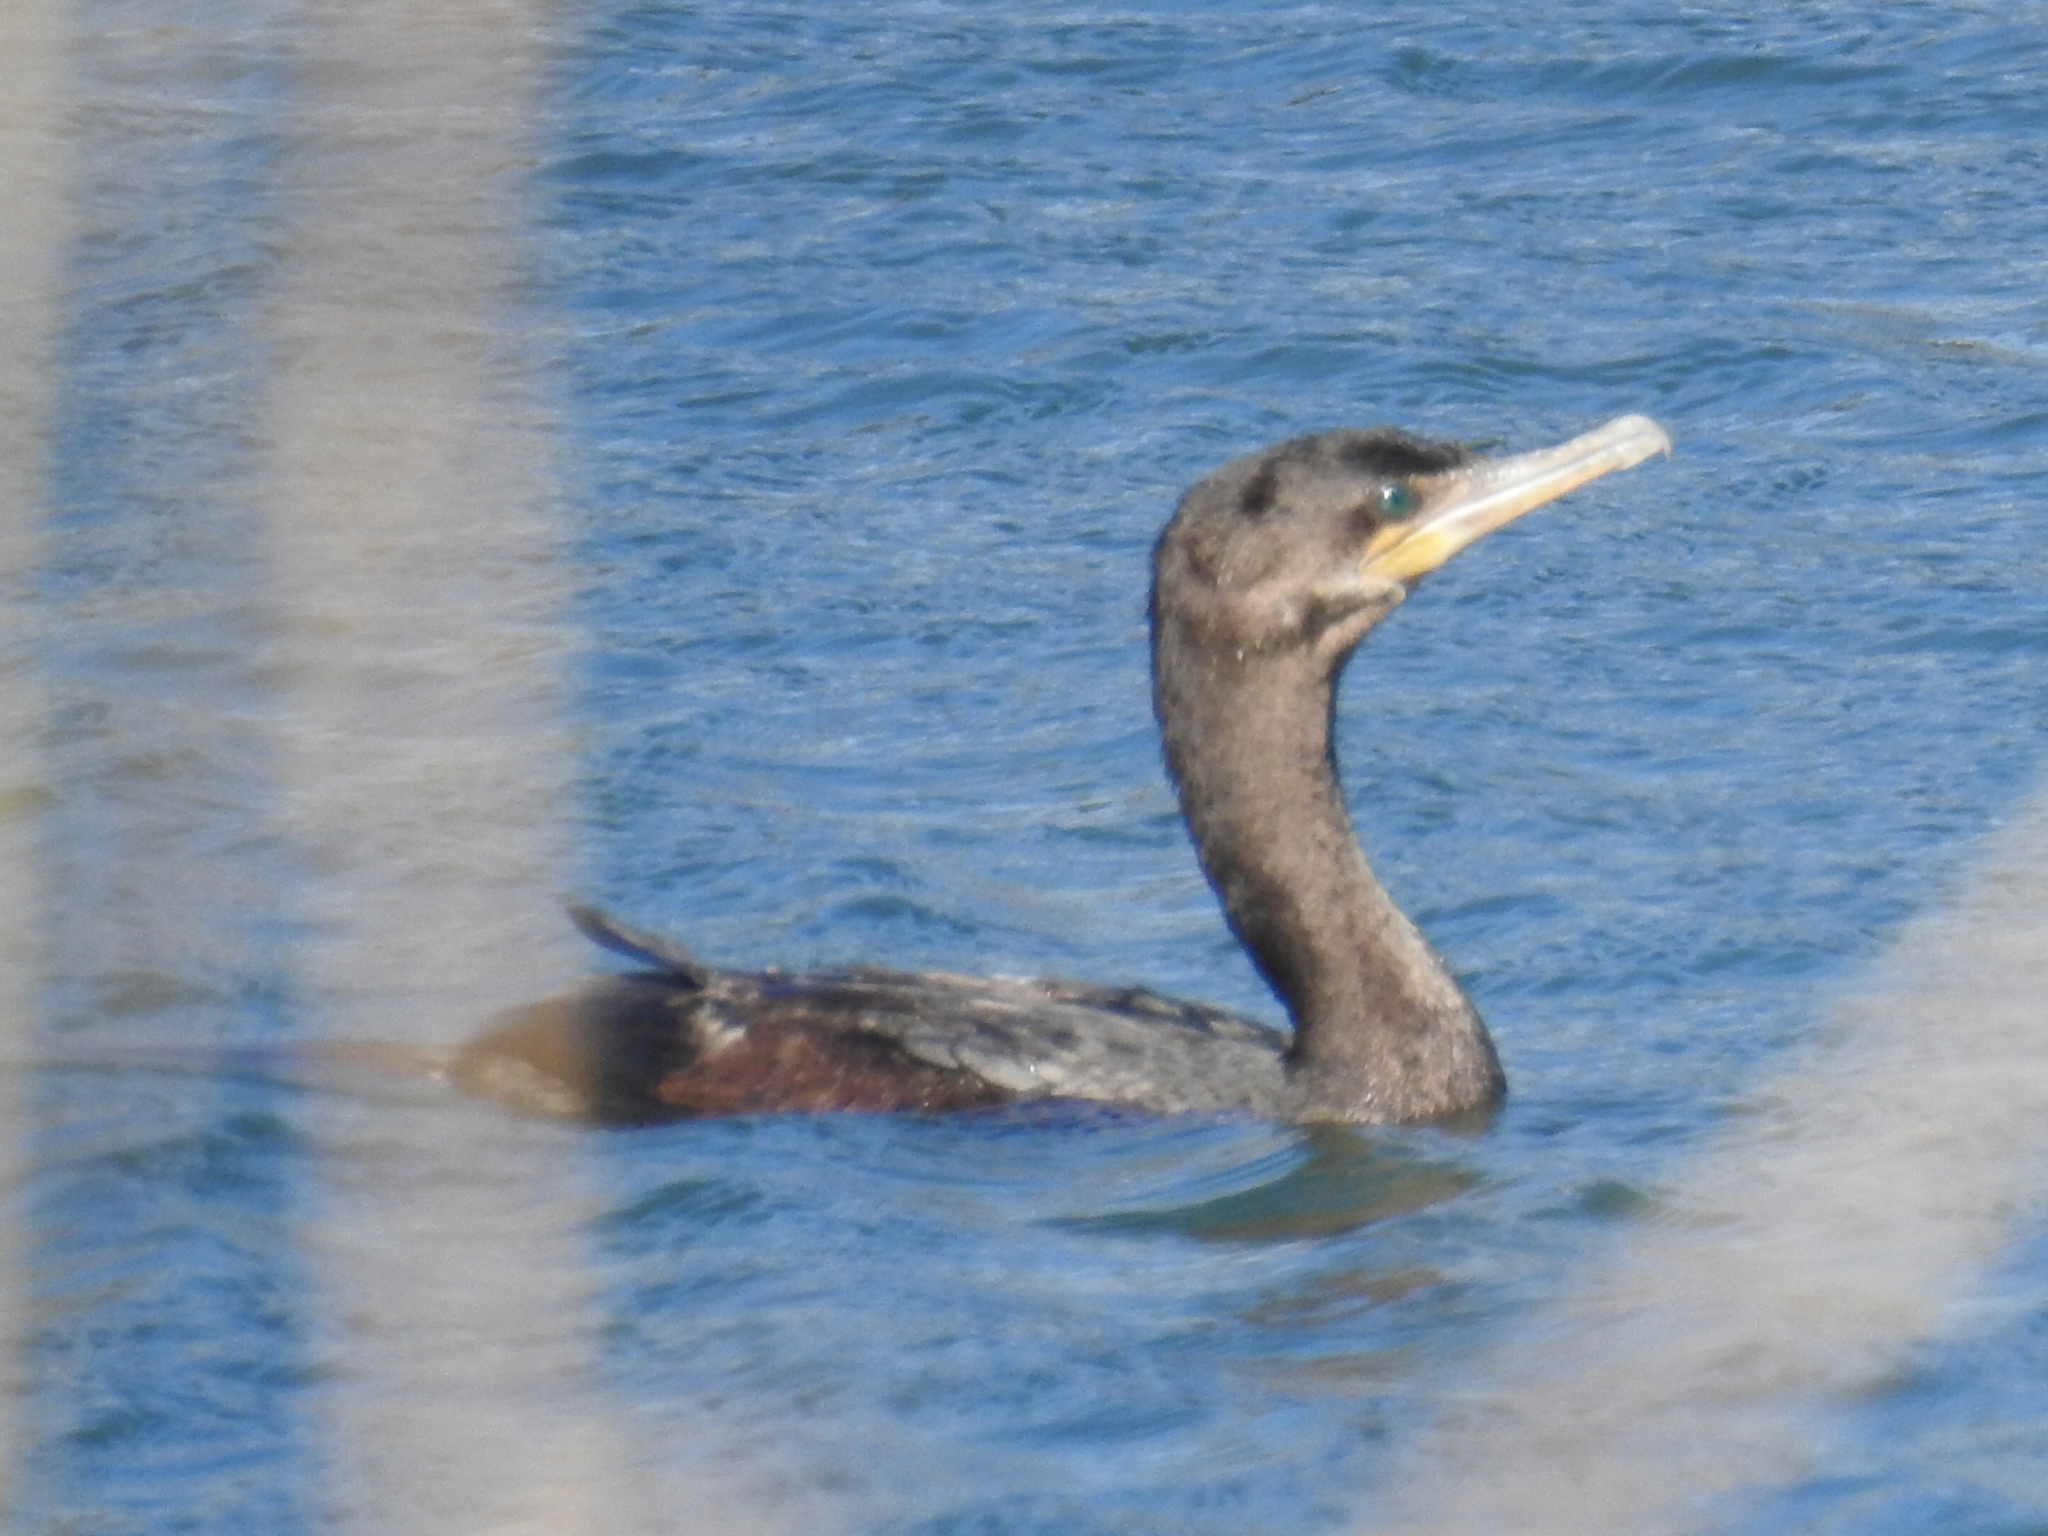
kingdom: Animalia
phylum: Chordata
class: Aves
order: Suliformes
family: Phalacrocoracidae
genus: Phalacrocorax
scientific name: Phalacrocorax brasilianus
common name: Neotropic cormorant
